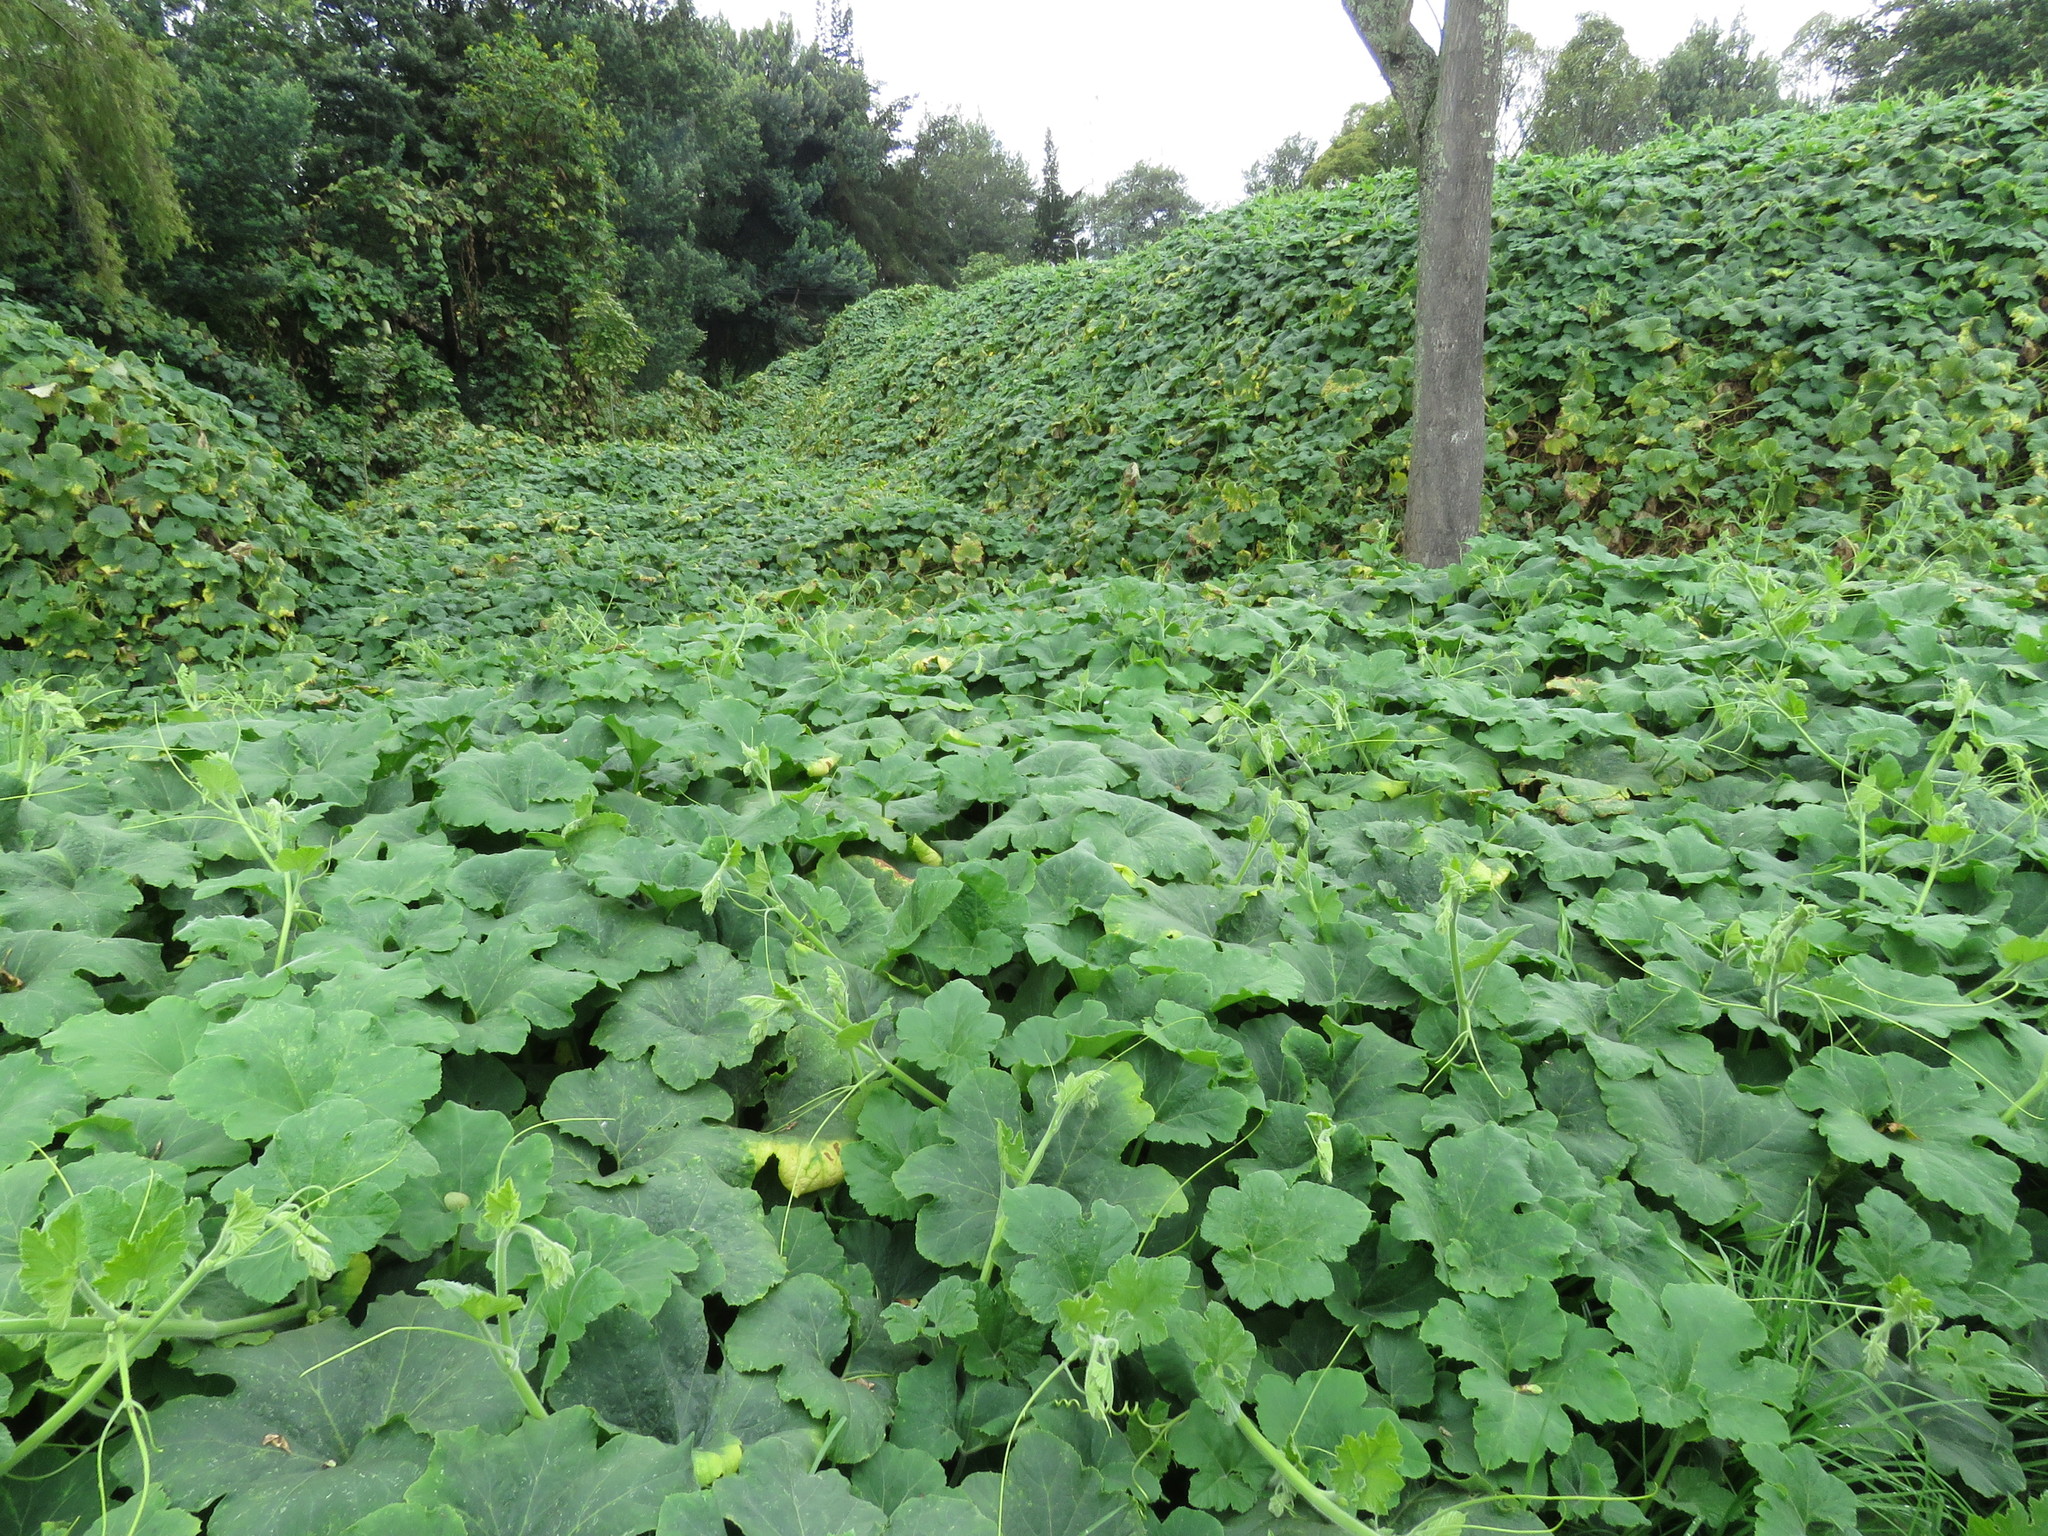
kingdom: Plantae
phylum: Tracheophyta
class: Magnoliopsida
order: Cucurbitales
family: Cucurbitaceae
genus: Cucurbita
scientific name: Cucurbita pepo
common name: Marrow
